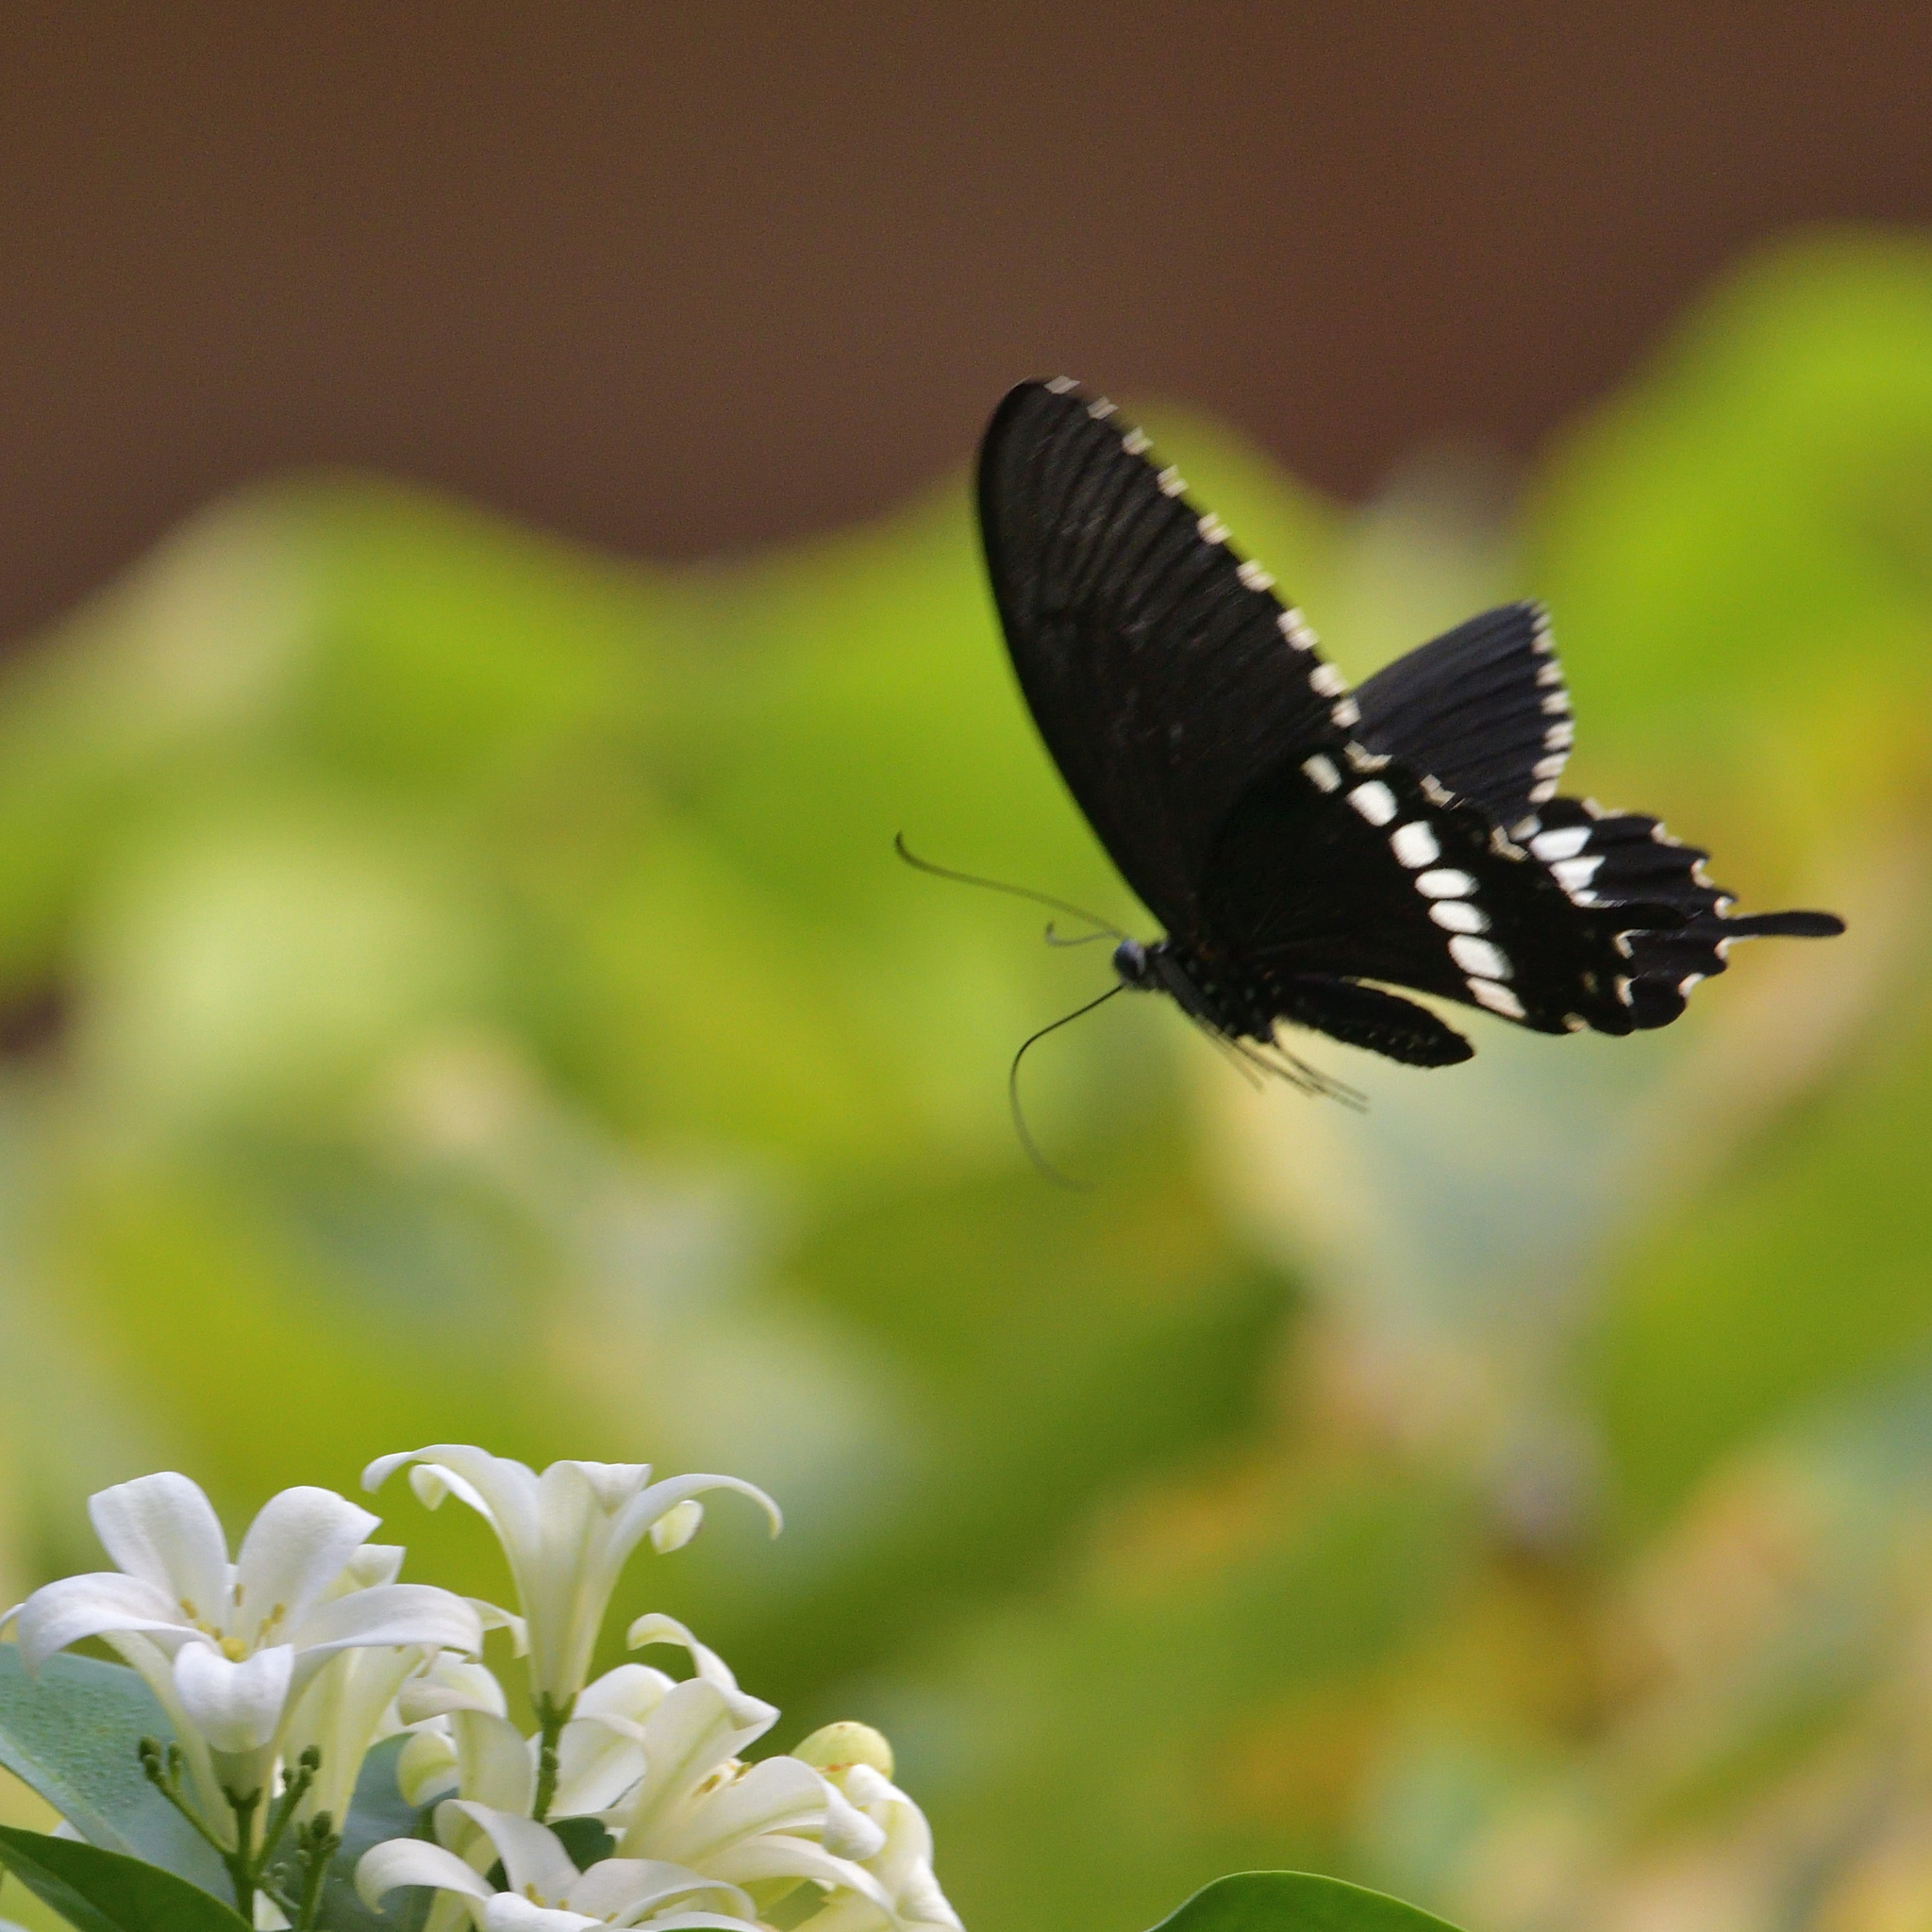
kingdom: Animalia
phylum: Arthropoda
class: Insecta
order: Lepidoptera
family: Papilionidae
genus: Papilio
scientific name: Papilio polytes
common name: Common mormon
